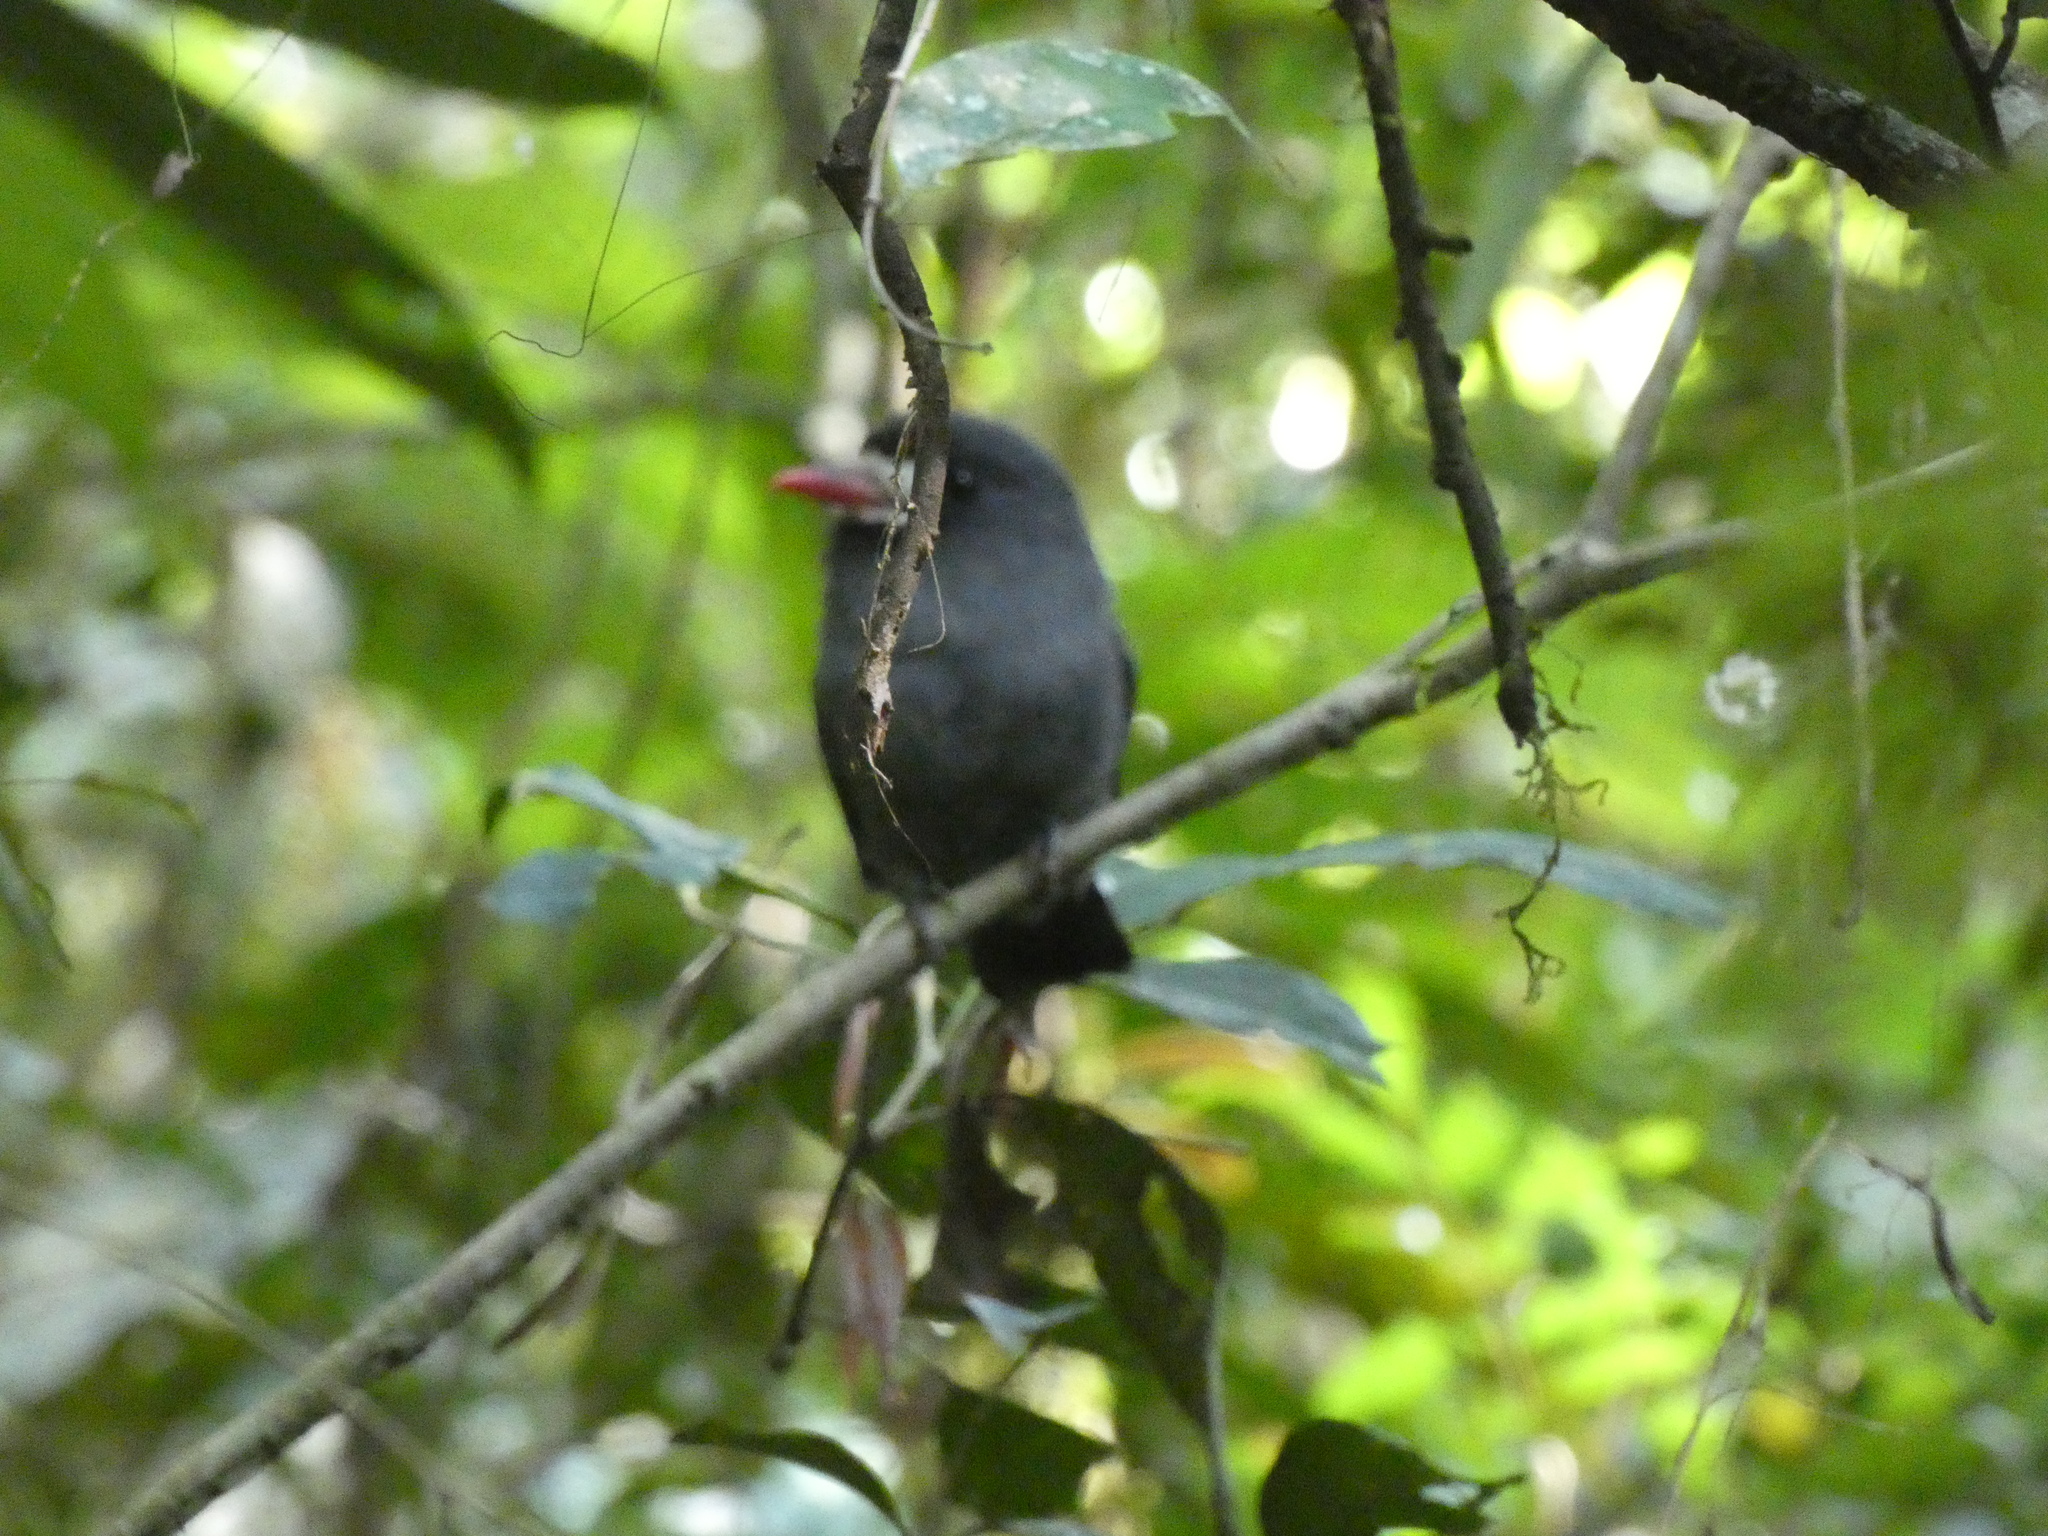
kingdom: Animalia
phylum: Chordata
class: Aves
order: Piciformes
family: Bucconidae
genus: Monasa
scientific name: Monasa morphoeus
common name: White-fronted nunbird
